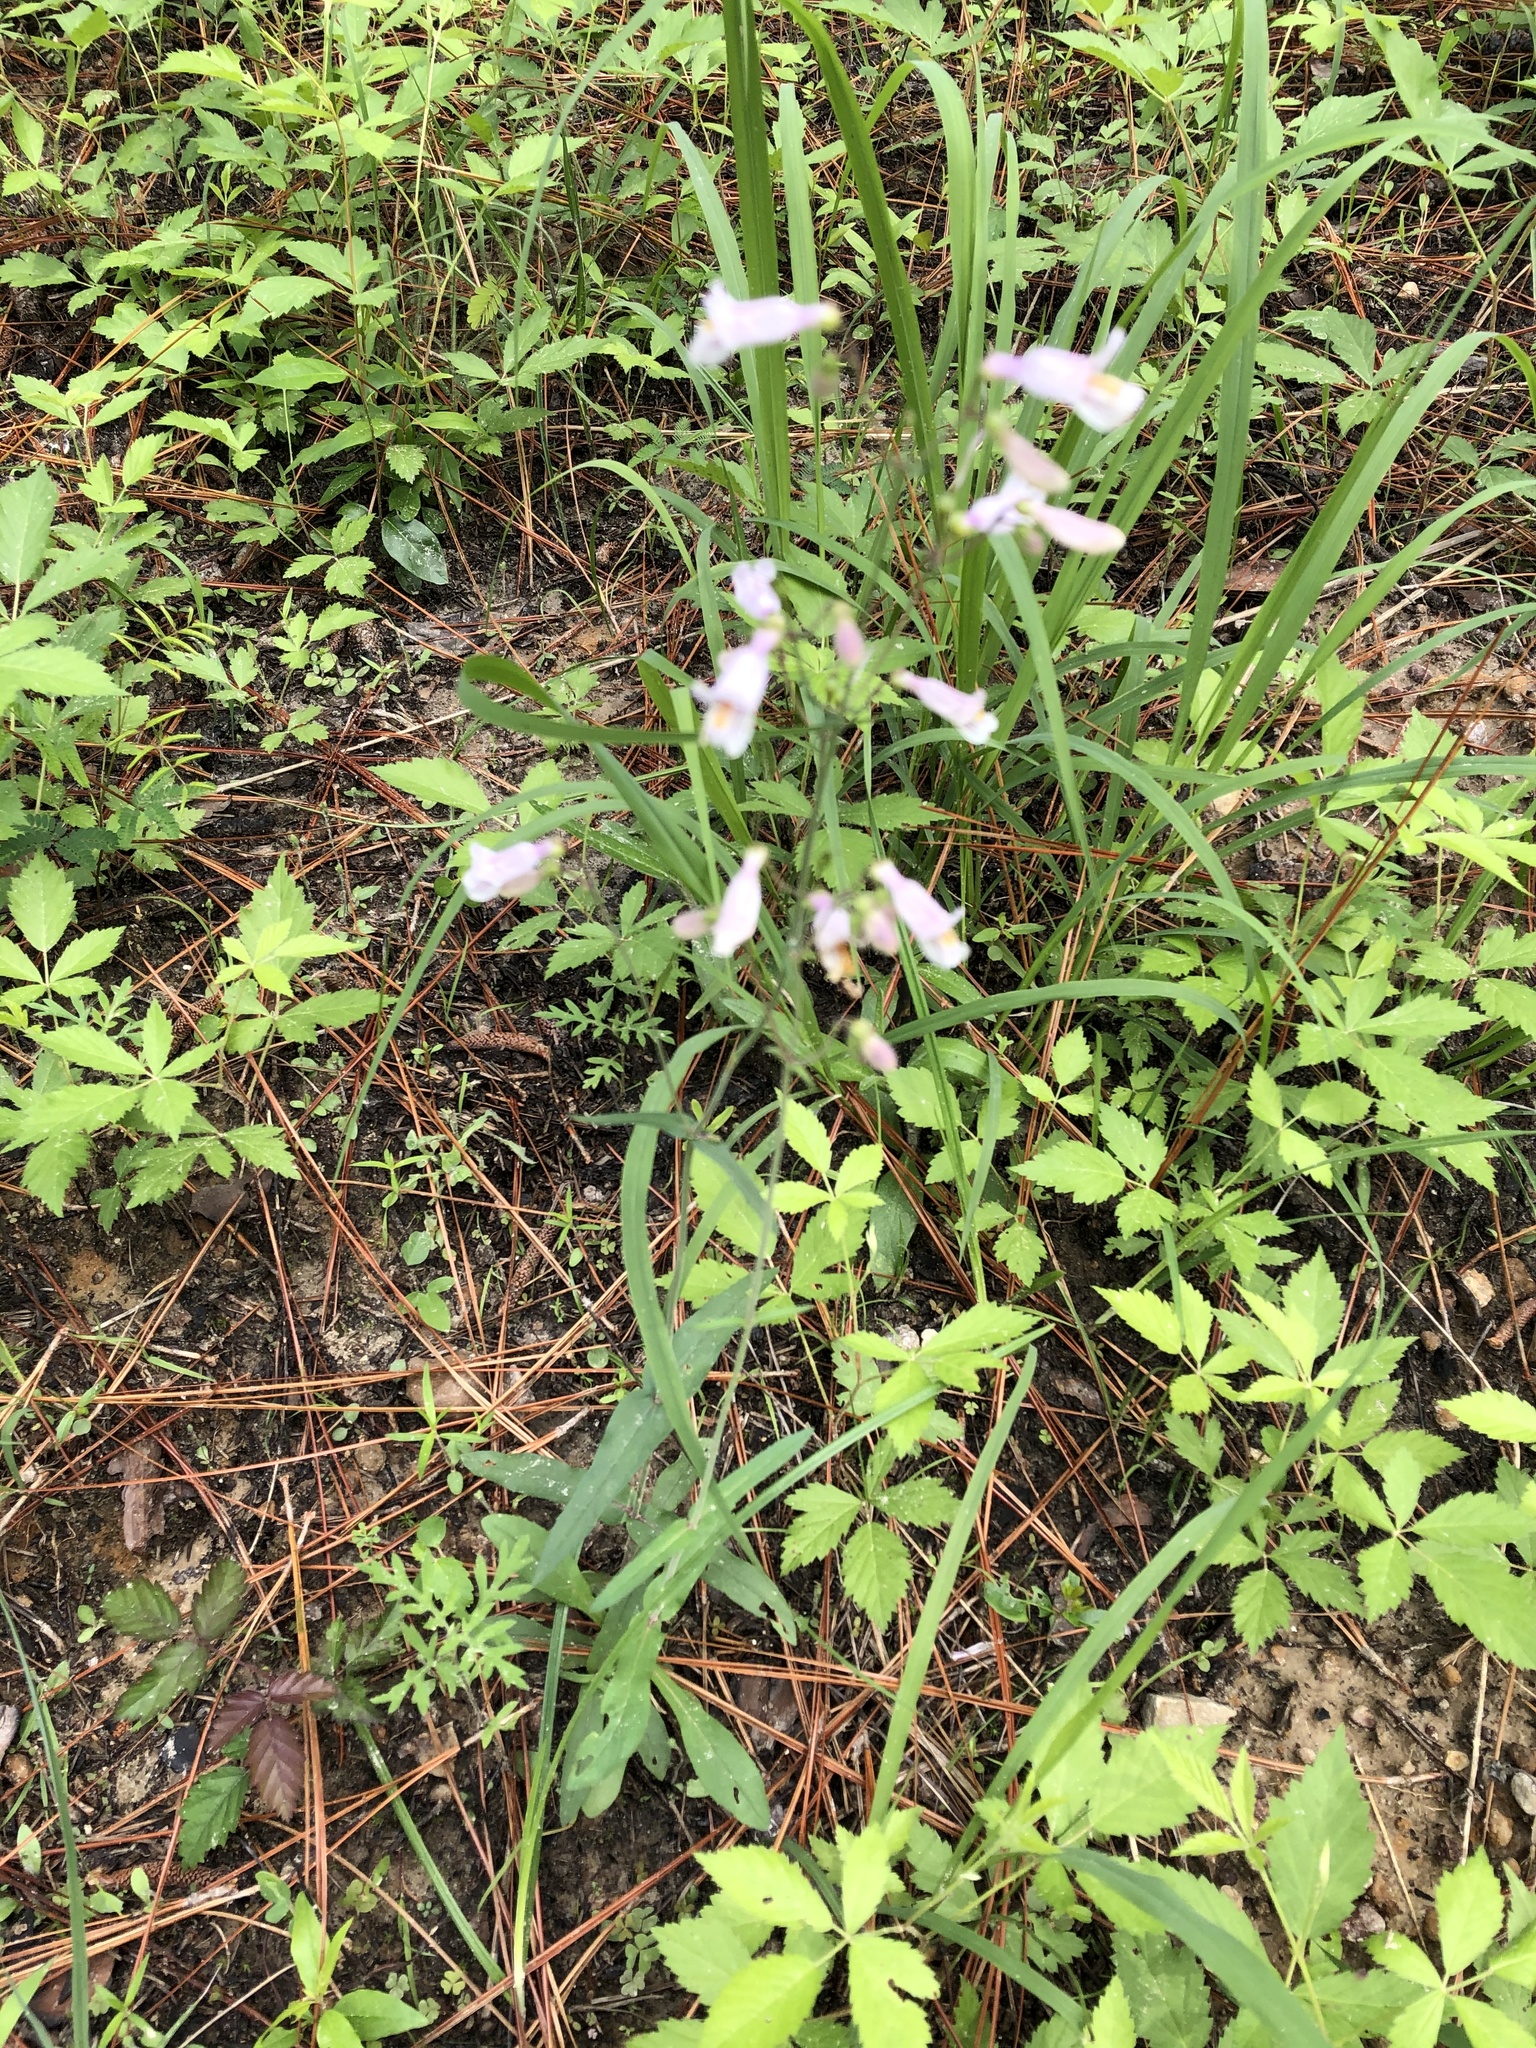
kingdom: Plantae
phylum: Tracheophyta
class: Magnoliopsida
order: Lamiales
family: Plantaginaceae
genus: Penstemon
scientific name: Penstemon laxiflorus
